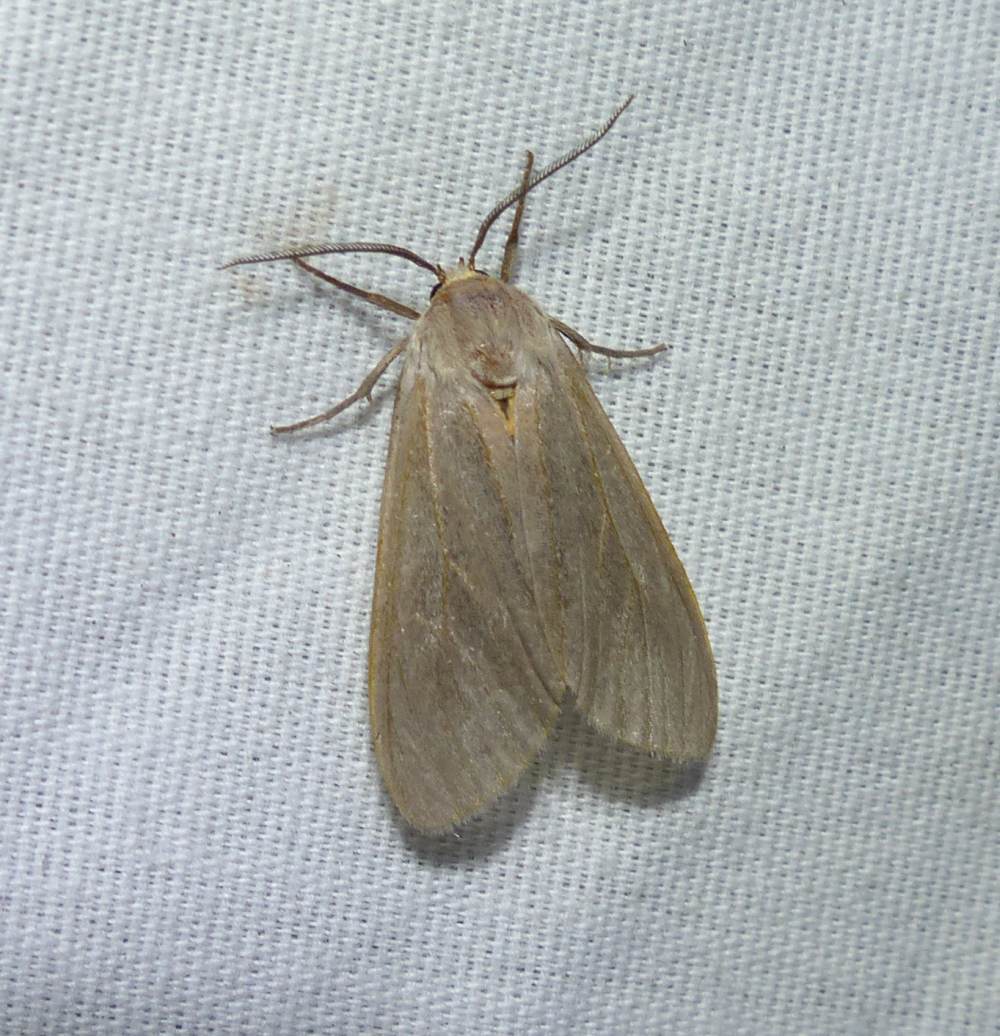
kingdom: Animalia
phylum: Arthropoda
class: Insecta
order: Lepidoptera
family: Erebidae
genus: Euchaetes
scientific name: Euchaetes egle
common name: Milkweed tussock moth
